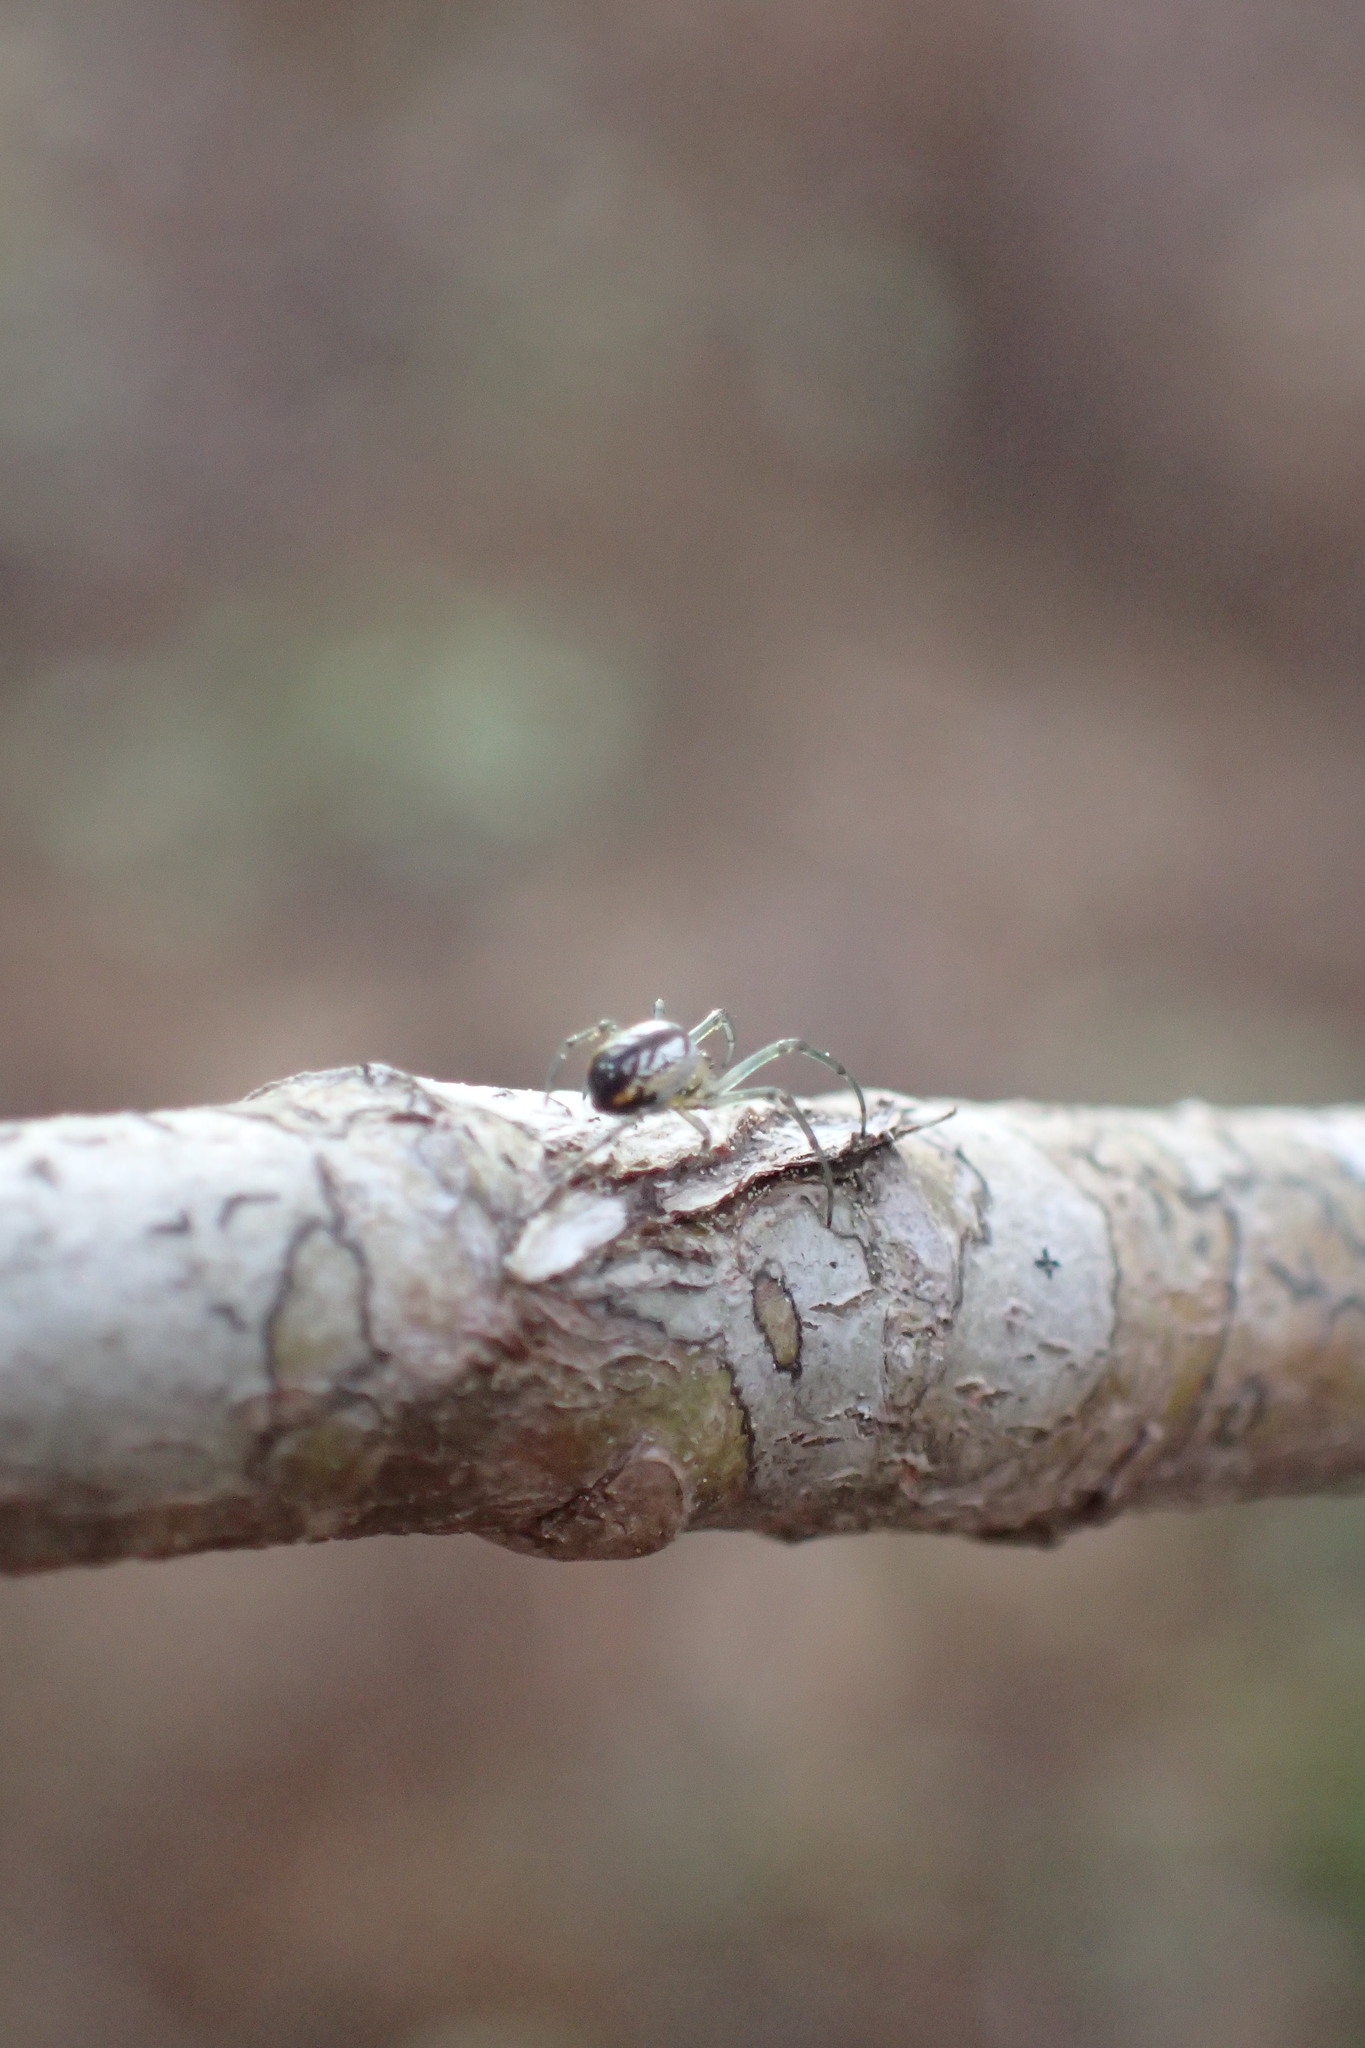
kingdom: Animalia
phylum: Arthropoda
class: Arachnida
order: Araneae
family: Tetragnathidae
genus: Leucauge
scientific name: Leucauge
